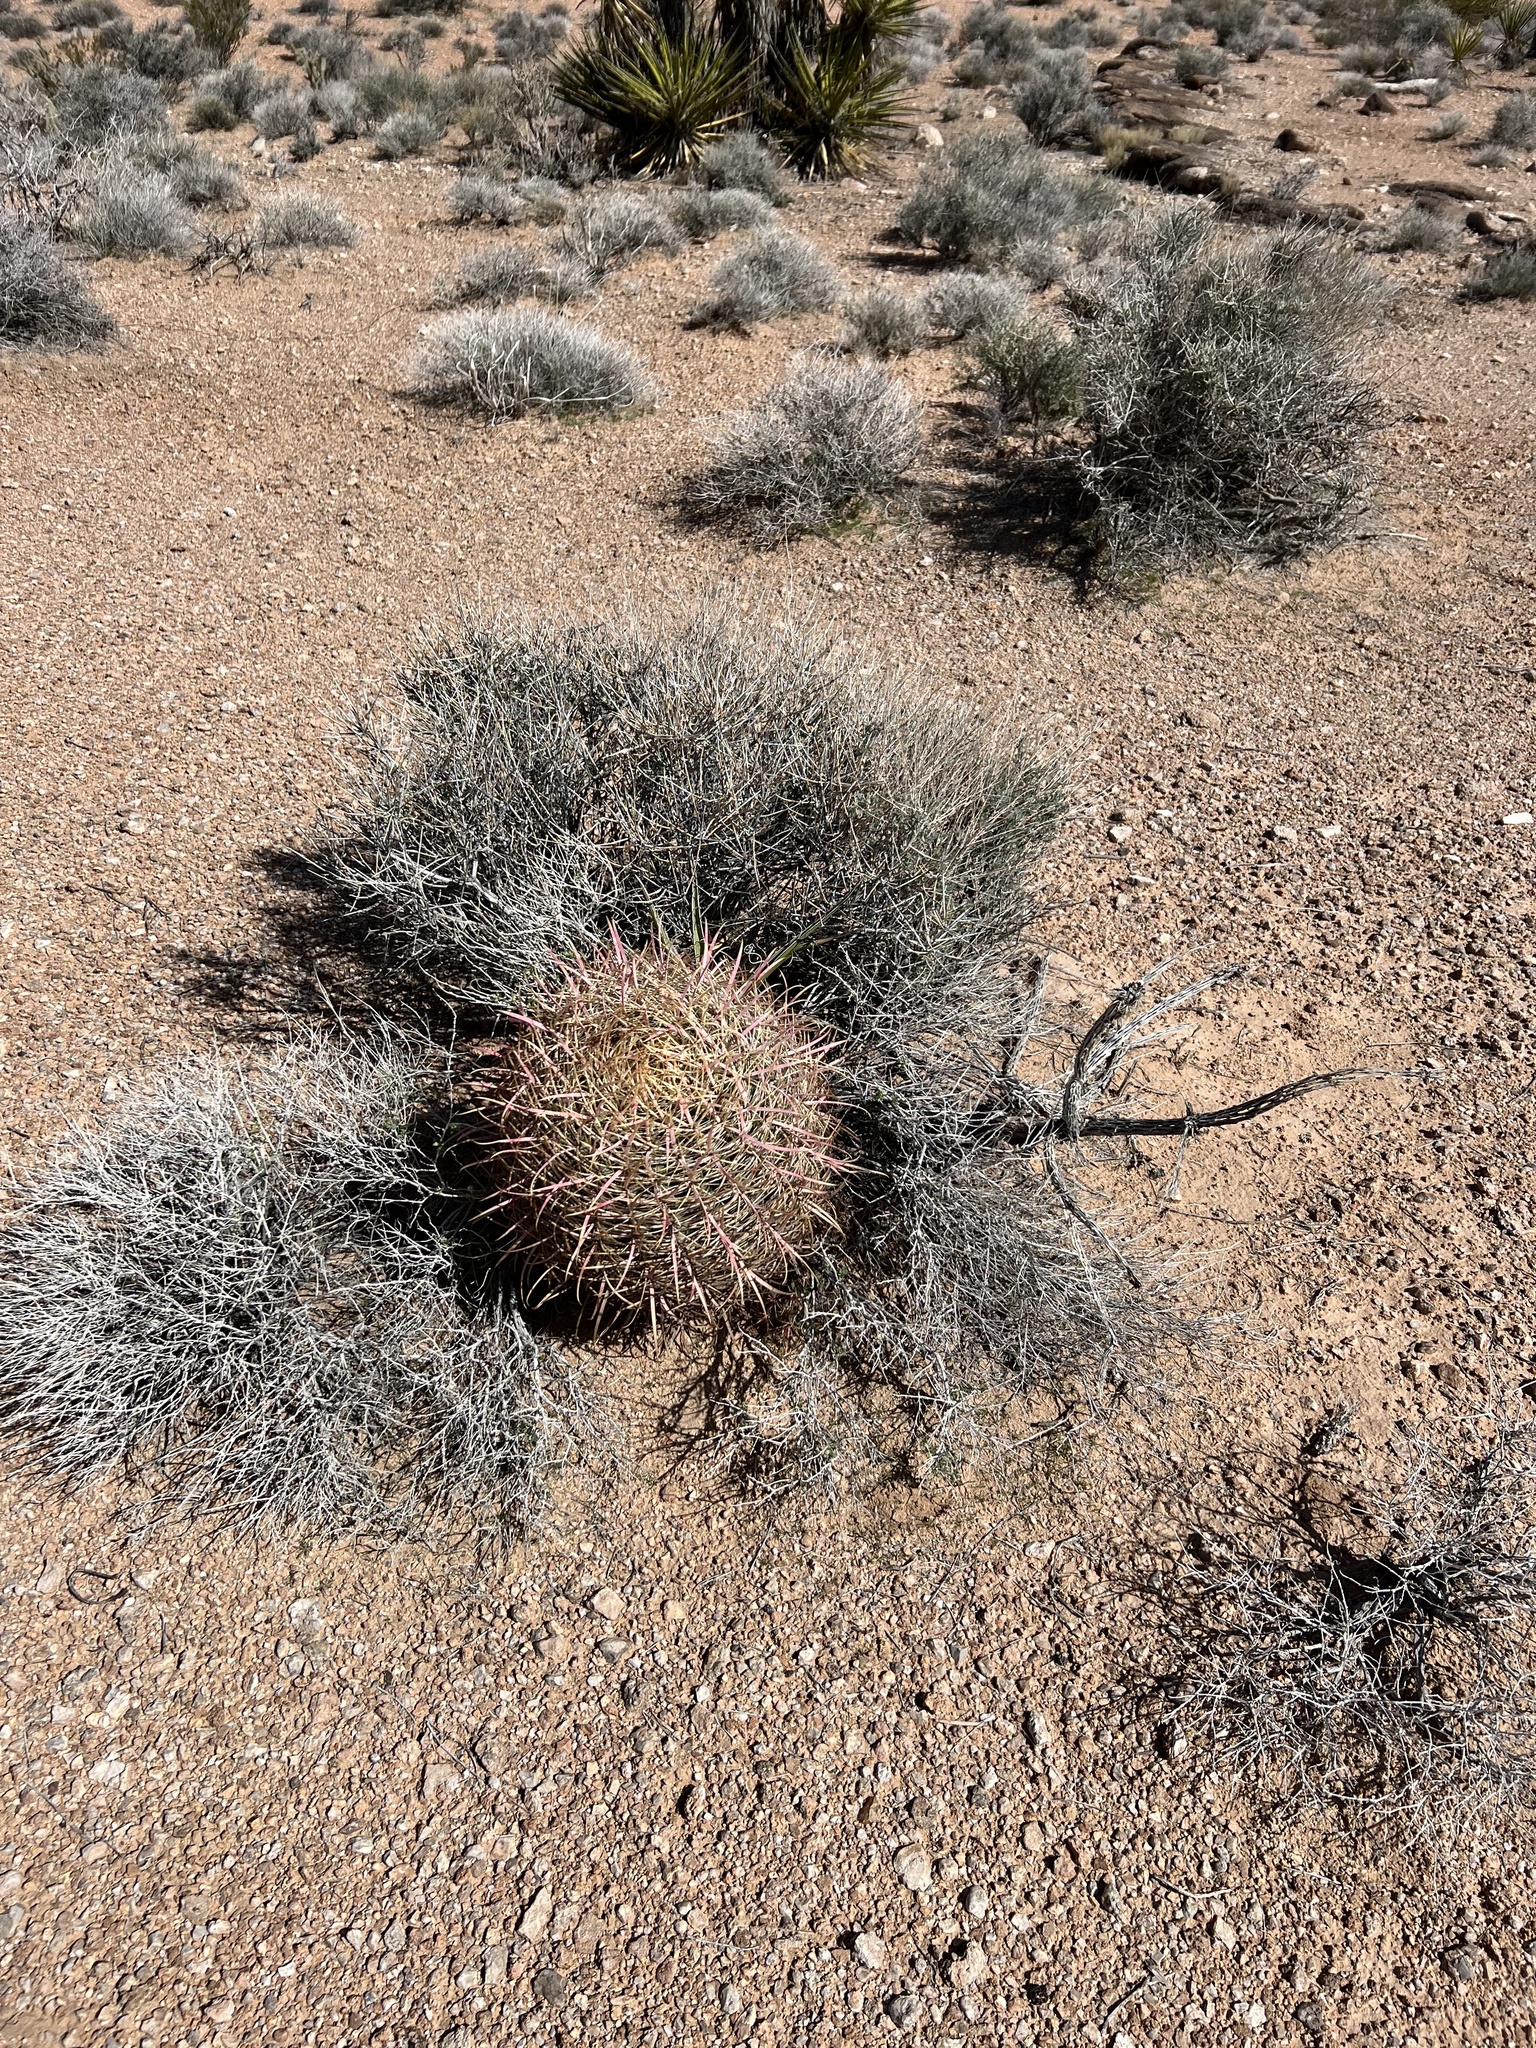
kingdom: Plantae
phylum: Tracheophyta
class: Magnoliopsida
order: Caryophyllales
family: Cactaceae
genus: Ferocactus
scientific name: Ferocactus cylindraceus
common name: California barrel cactus
